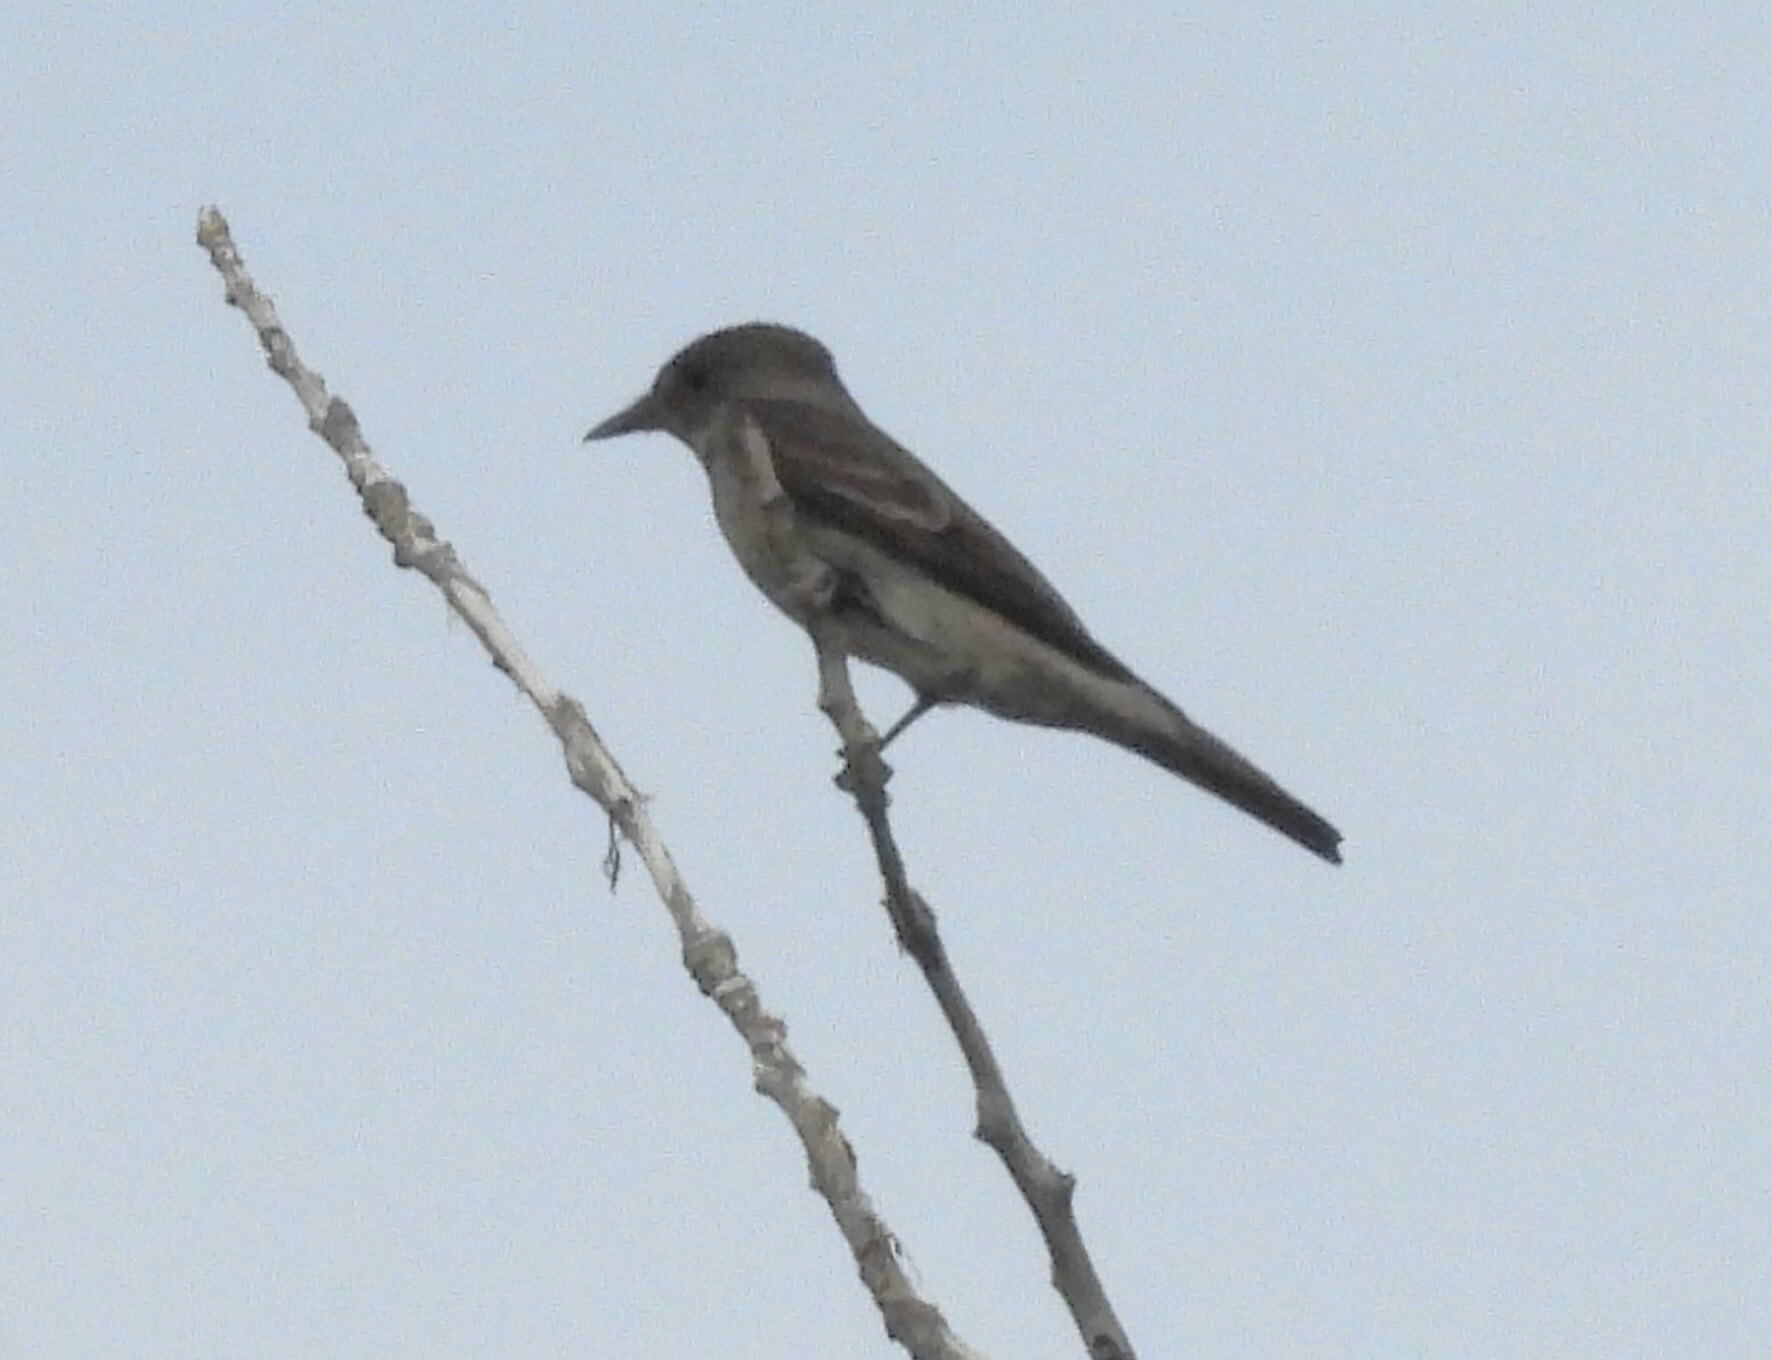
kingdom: Animalia
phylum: Chordata
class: Aves
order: Passeriformes
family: Tyrannidae
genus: Contopus
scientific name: Contopus sordidulus
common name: Western wood-pewee
